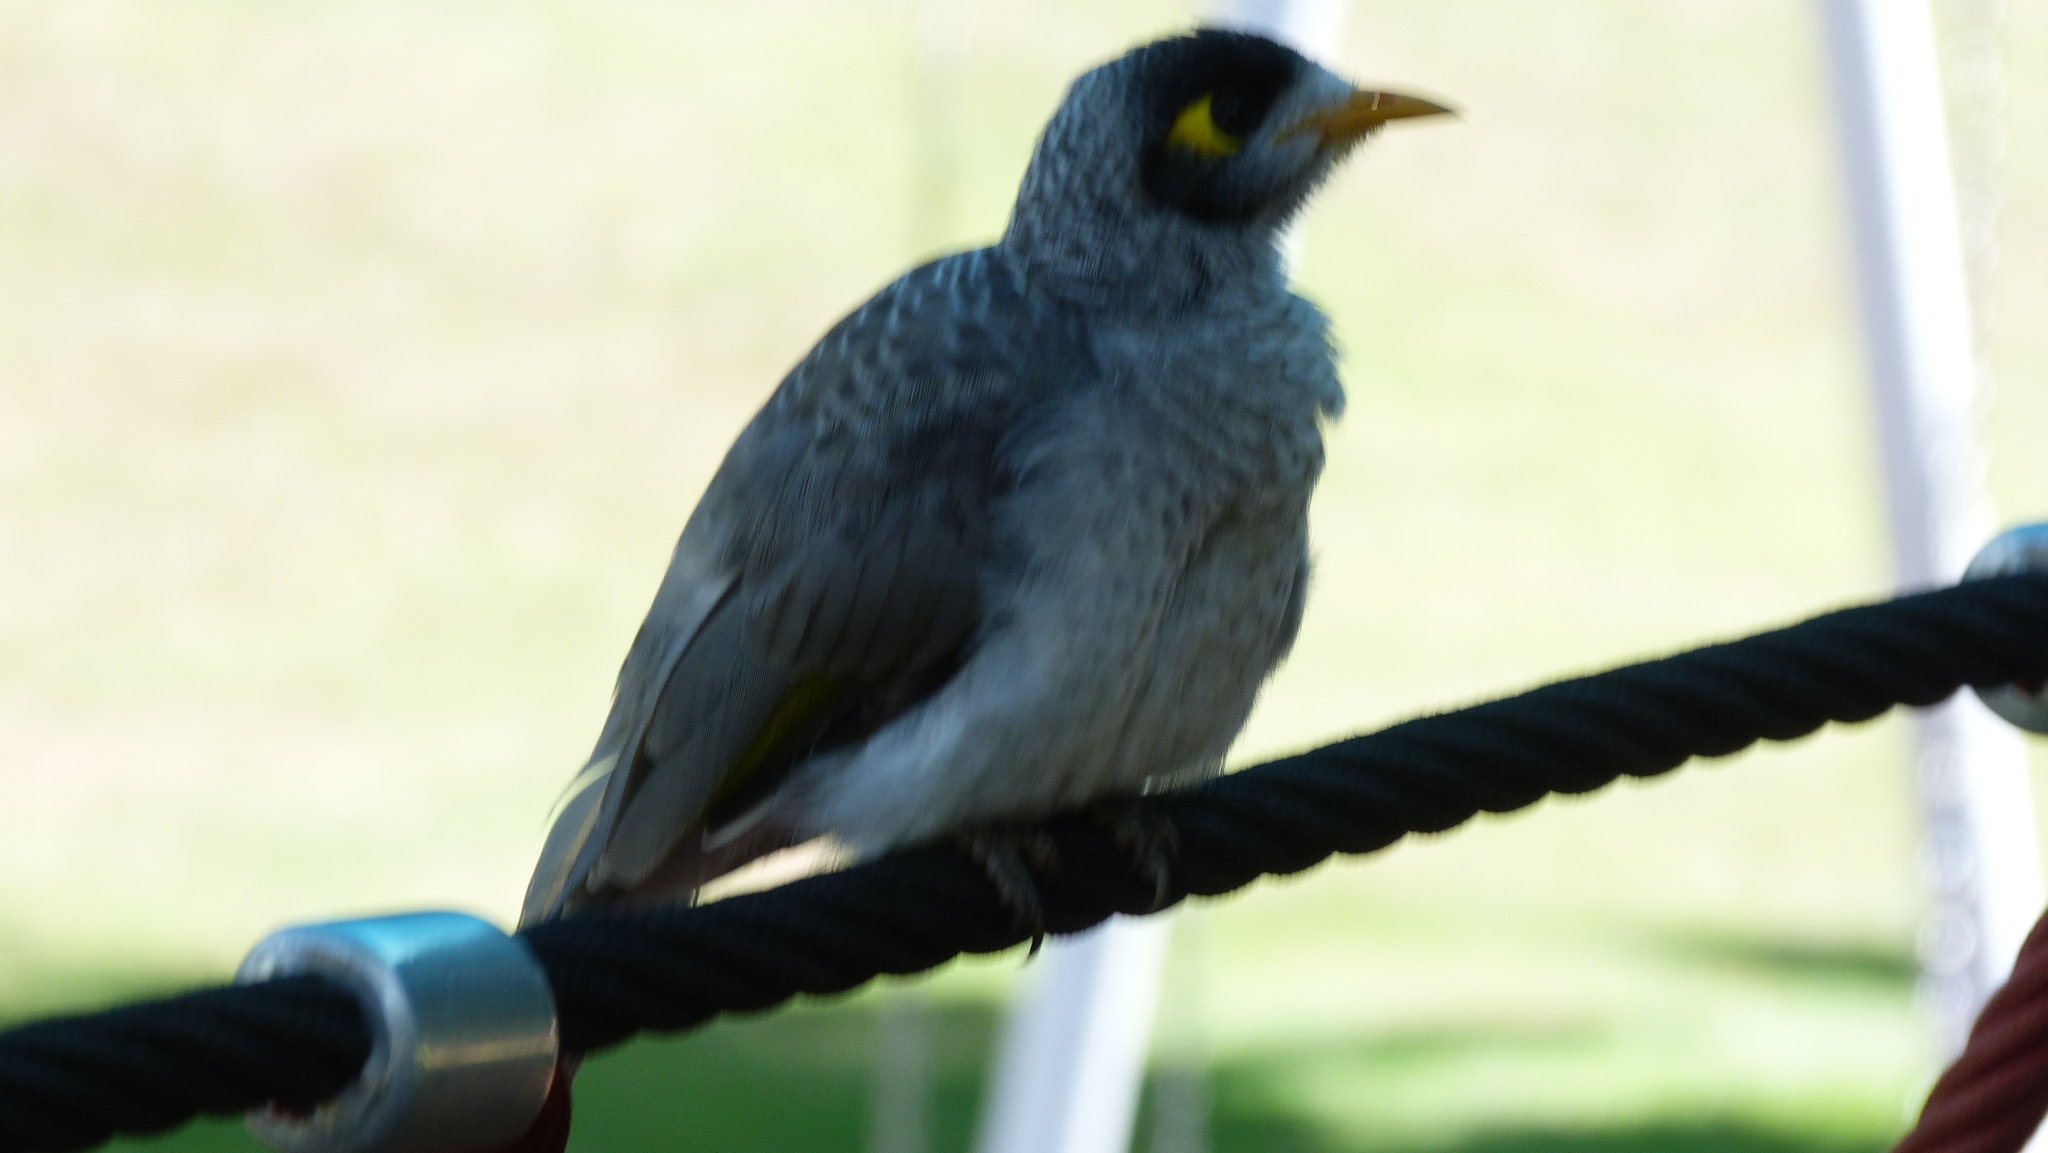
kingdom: Animalia
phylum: Chordata
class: Aves
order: Passeriformes
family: Meliphagidae
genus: Manorina
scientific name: Manorina melanocephala
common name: Noisy miner
